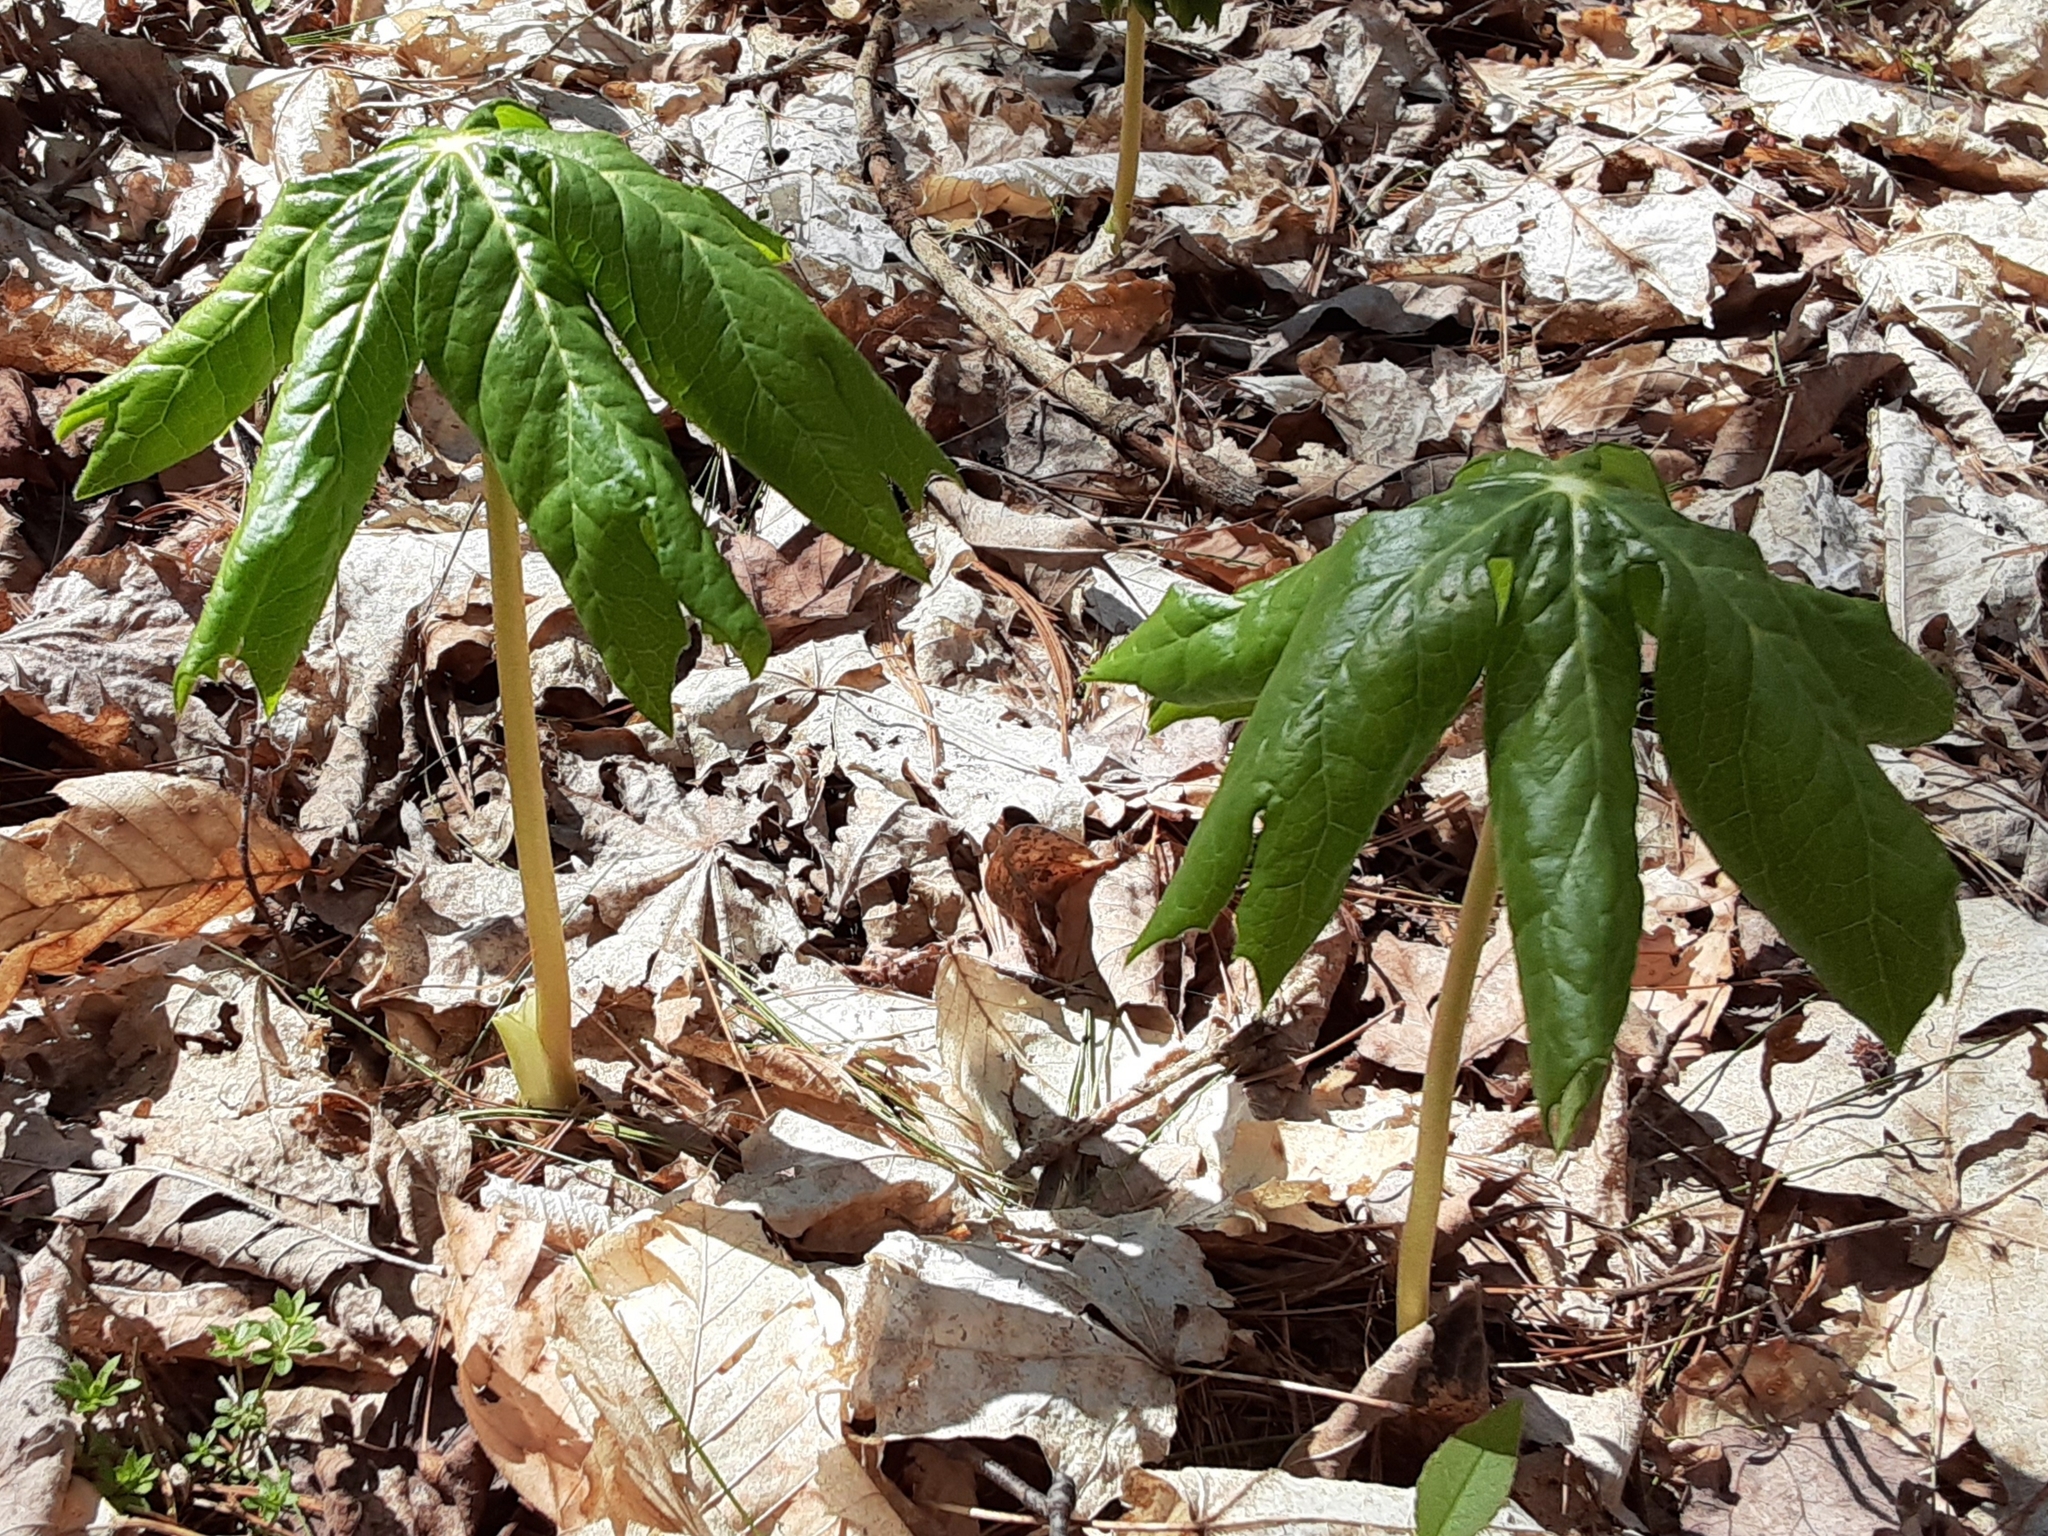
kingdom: Plantae
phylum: Tracheophyta
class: Magnoliopsida
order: Ranunculales
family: Berberidaceae
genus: Podophyllum
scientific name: Podophyllum peltatum
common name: Wild mandrake
